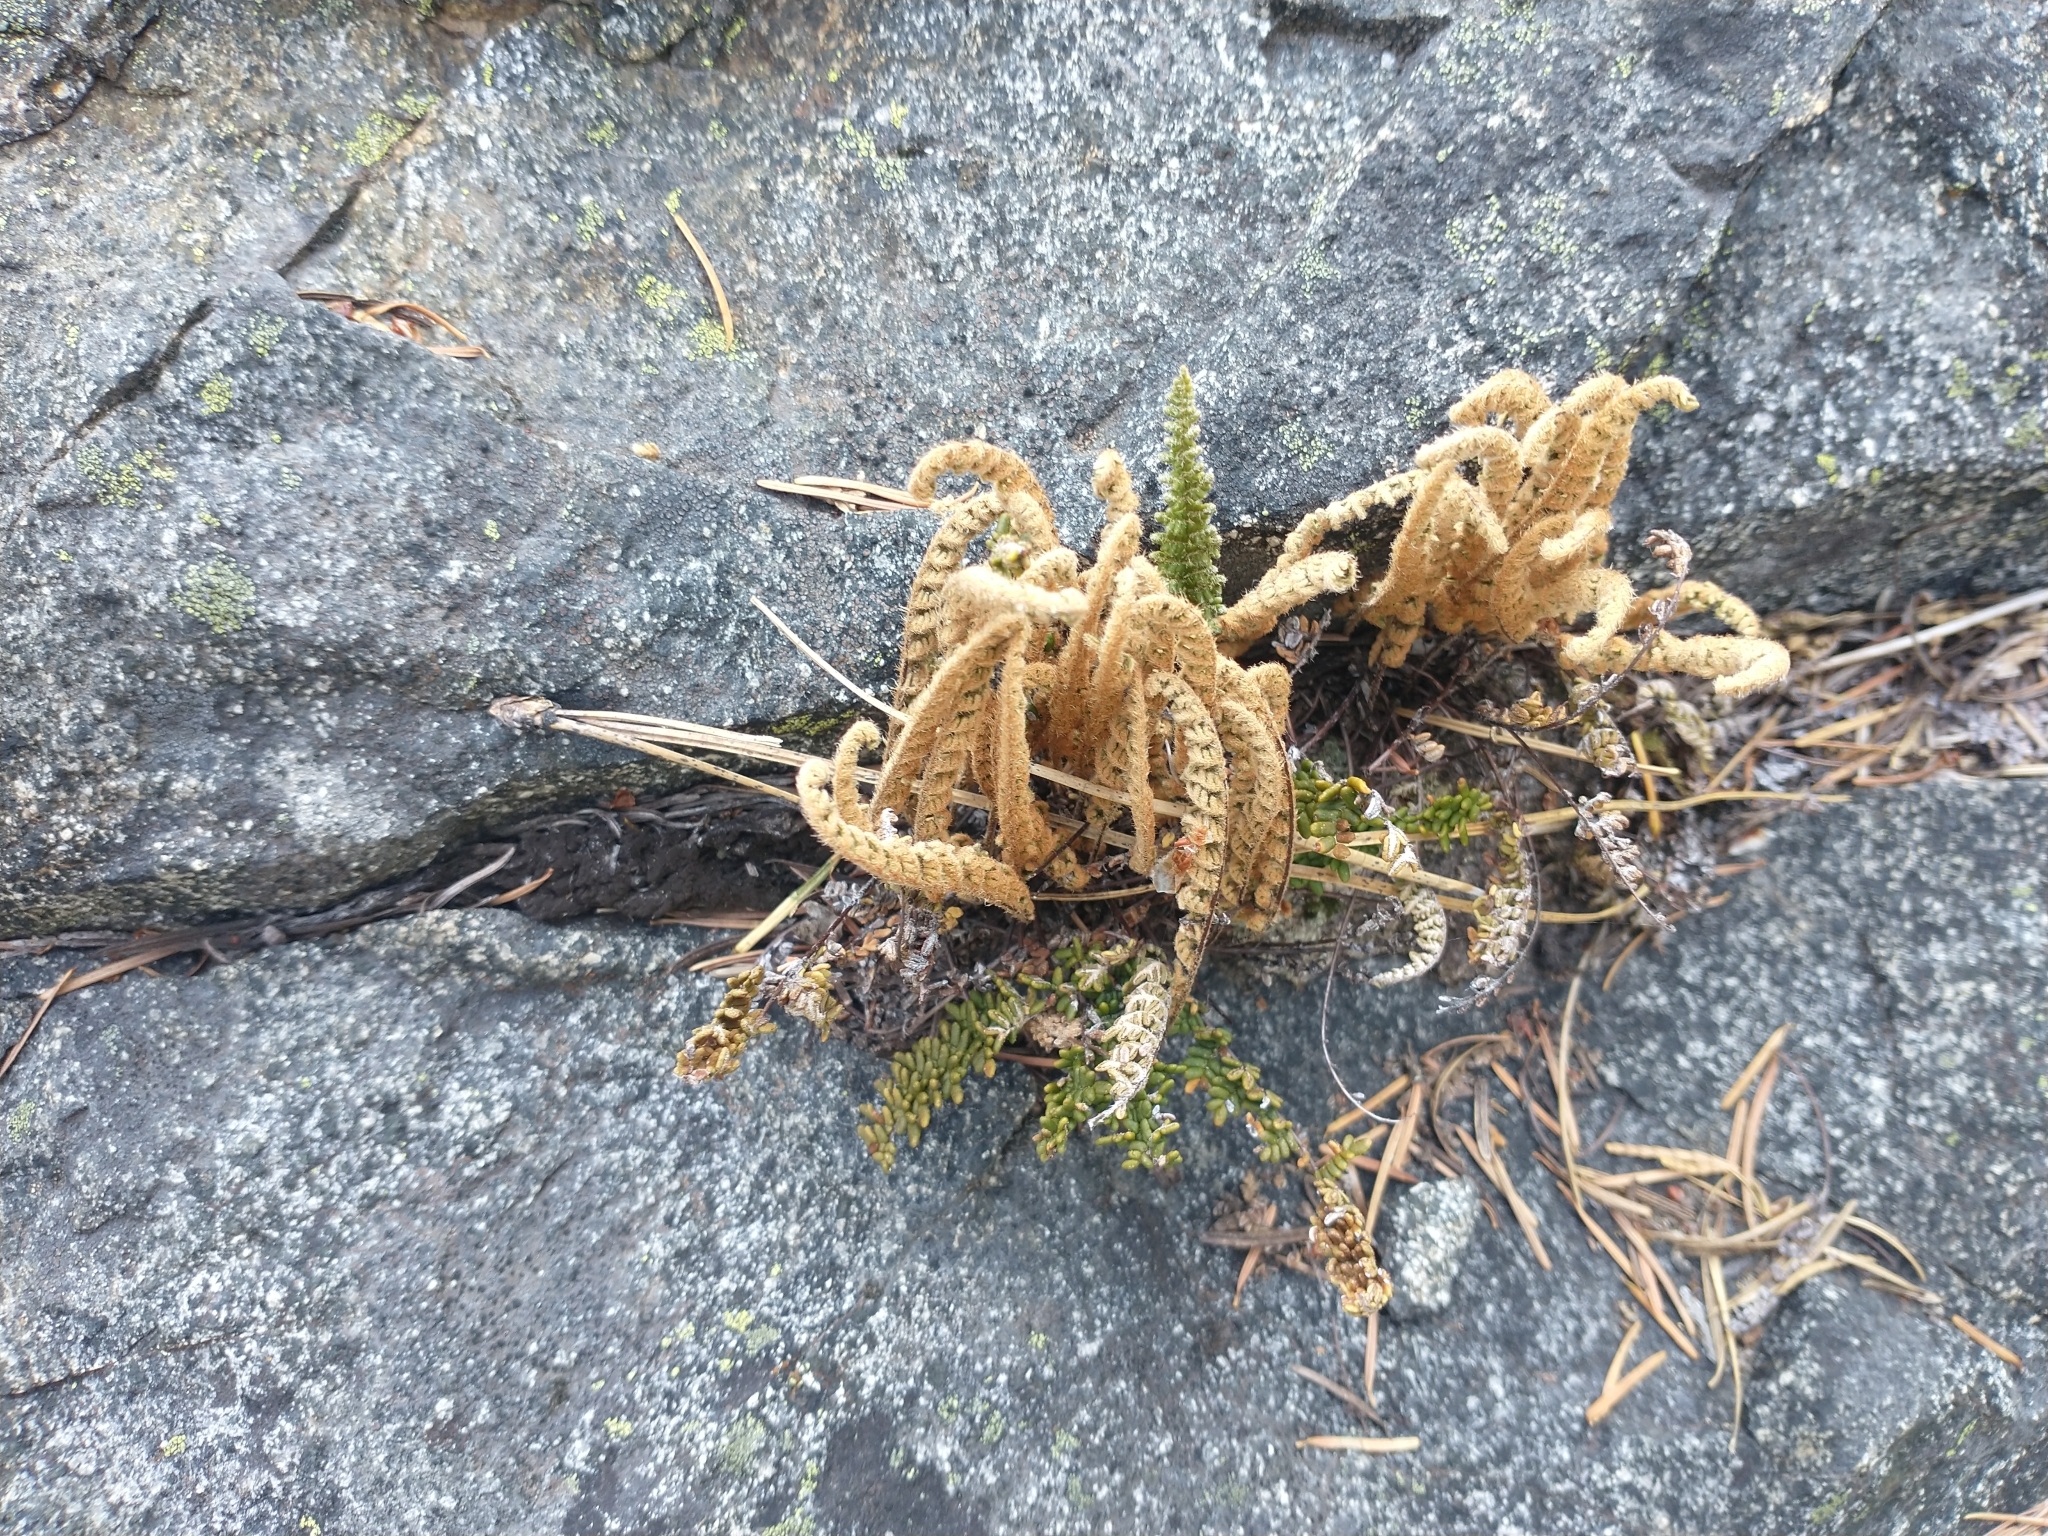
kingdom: Plantae
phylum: Tracheophyta
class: Polypodiopsida
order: Polypodiales
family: Pteridaceae
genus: Myriopteris
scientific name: Myriopteris gracillima
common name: Lace fern
